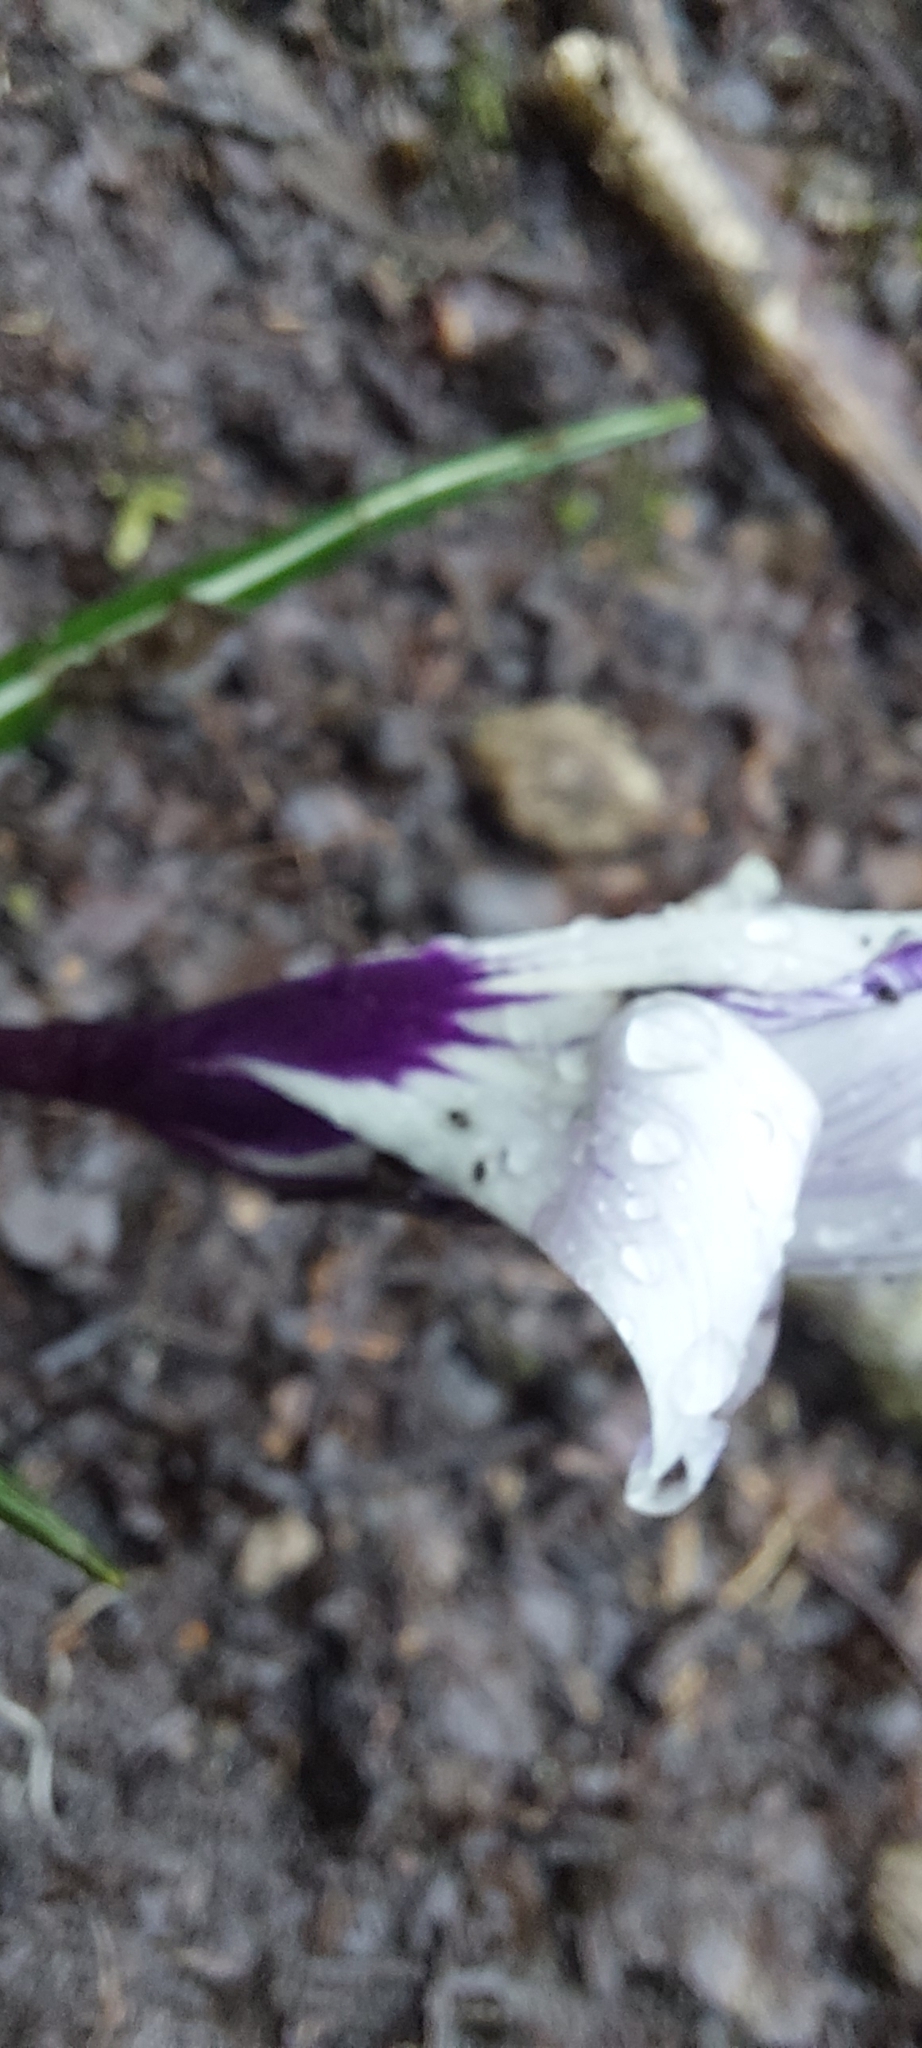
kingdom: Plantae
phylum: Tracheophyta
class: Liliopsida
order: Asparagales
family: Iridaceae
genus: Crocus
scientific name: Crocus neapolitanus
